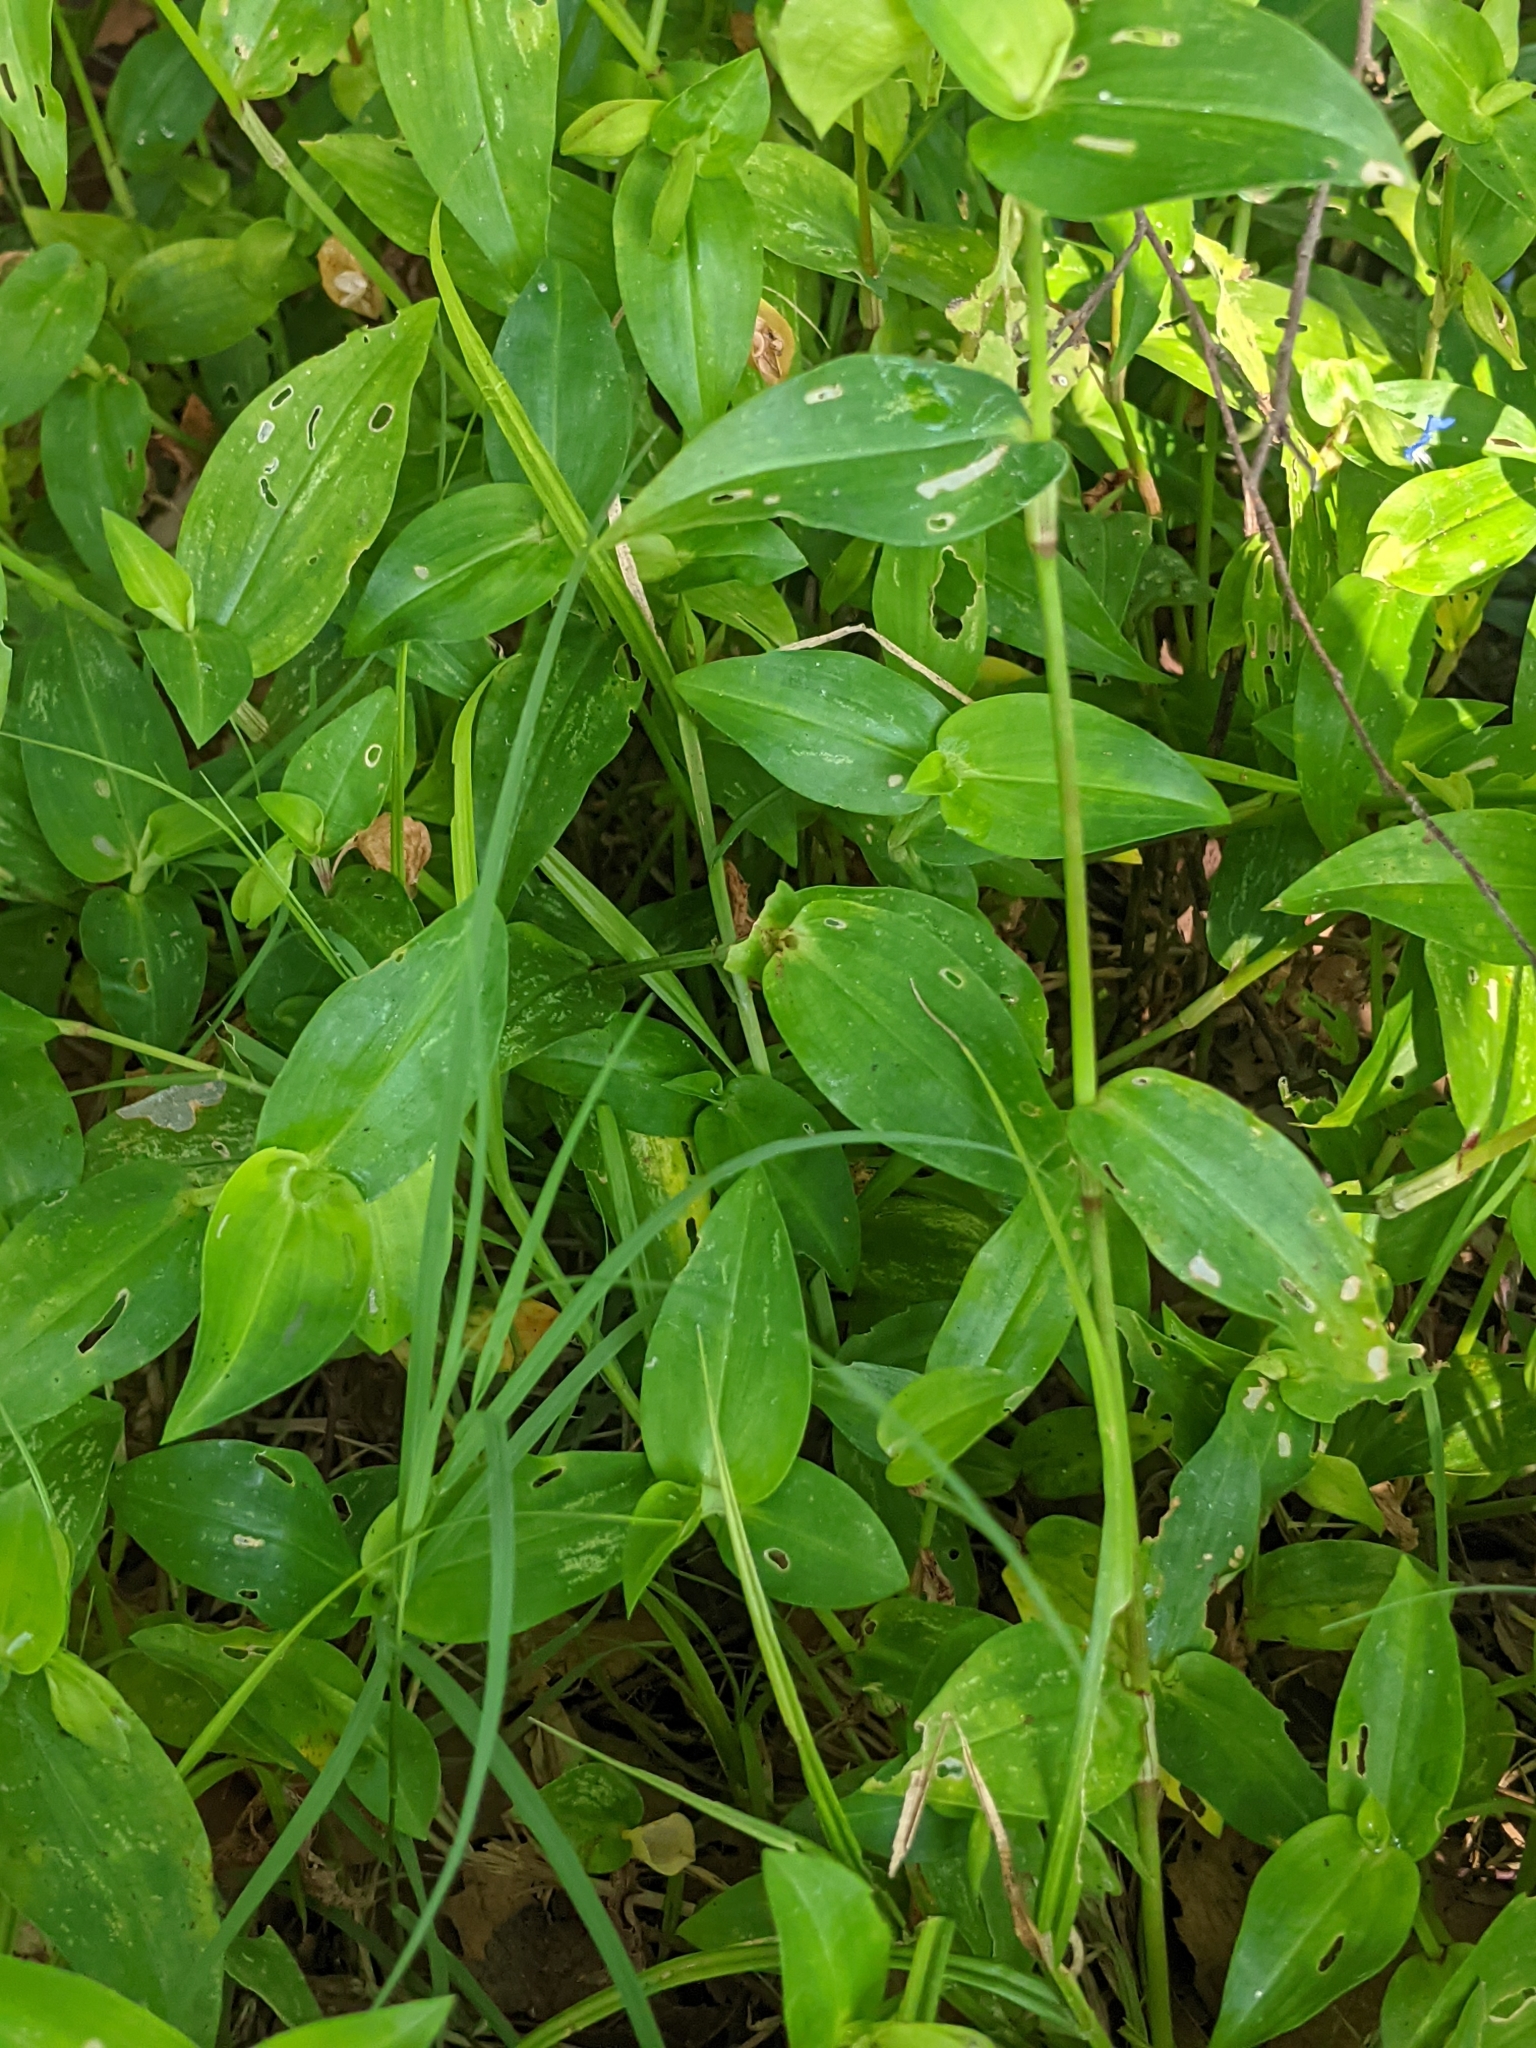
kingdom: Plantae
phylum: Tracheophyta
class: Liliopsida
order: Commelinales
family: Commelinaceae
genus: Commelina
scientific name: Commelina communis
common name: Asiatic dayflower
